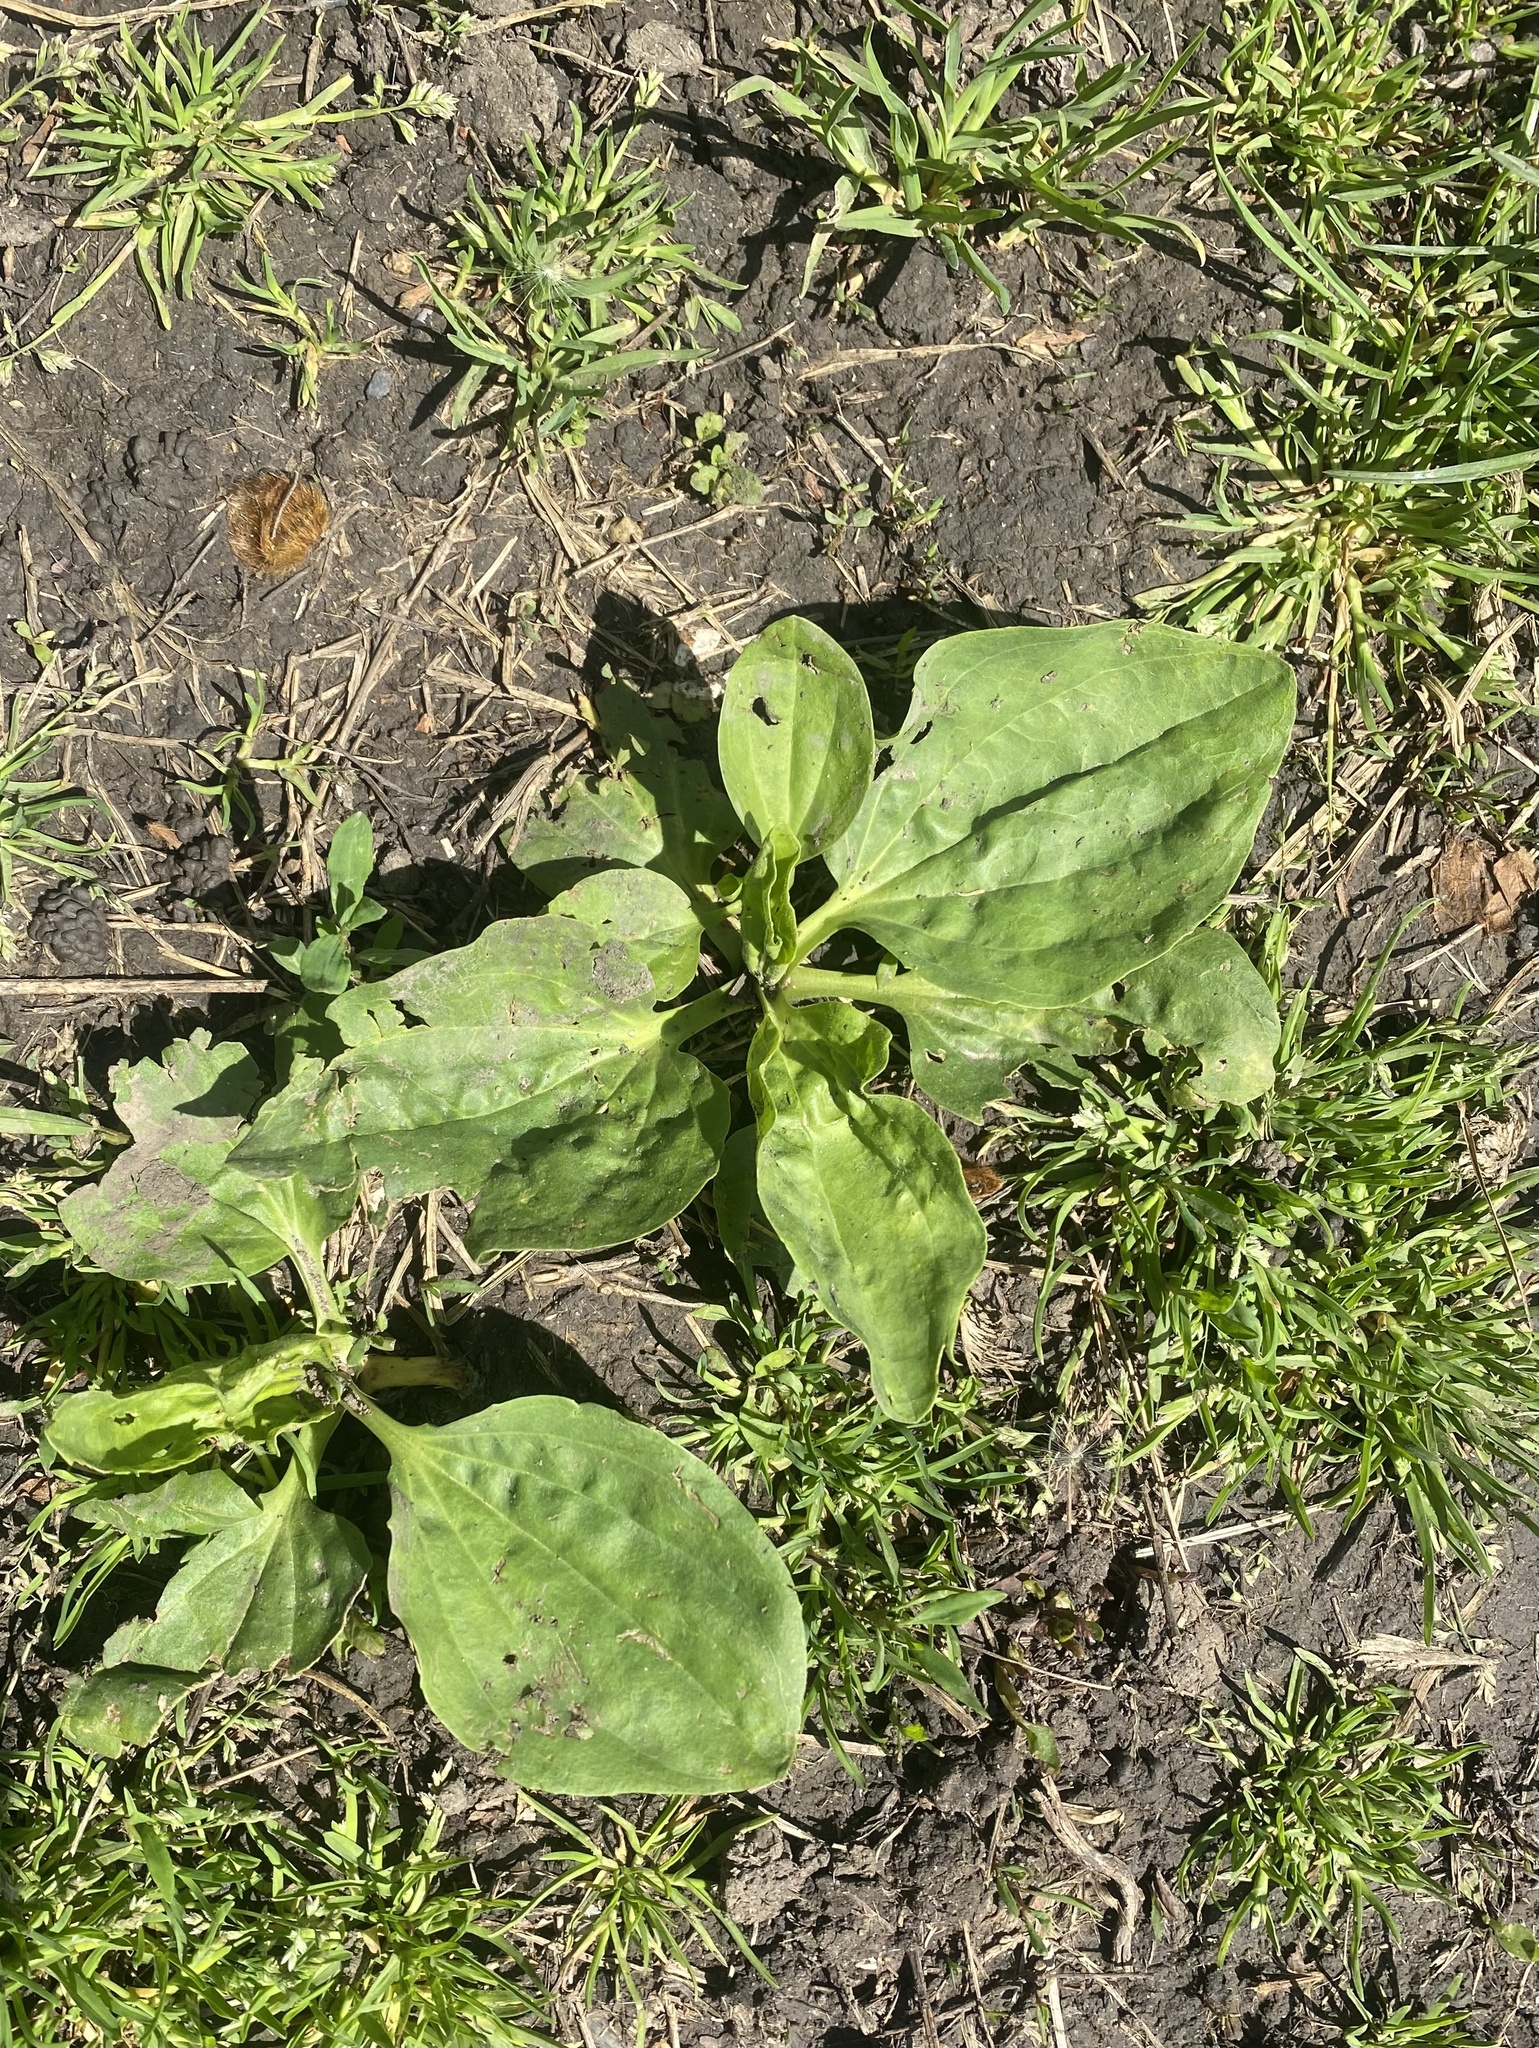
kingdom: Plantae
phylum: Tracheophyta
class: Magnoliopsida
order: Lamiales
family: Plantaginaceae
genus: Plantago
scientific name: Plantago major
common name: Common plantain
